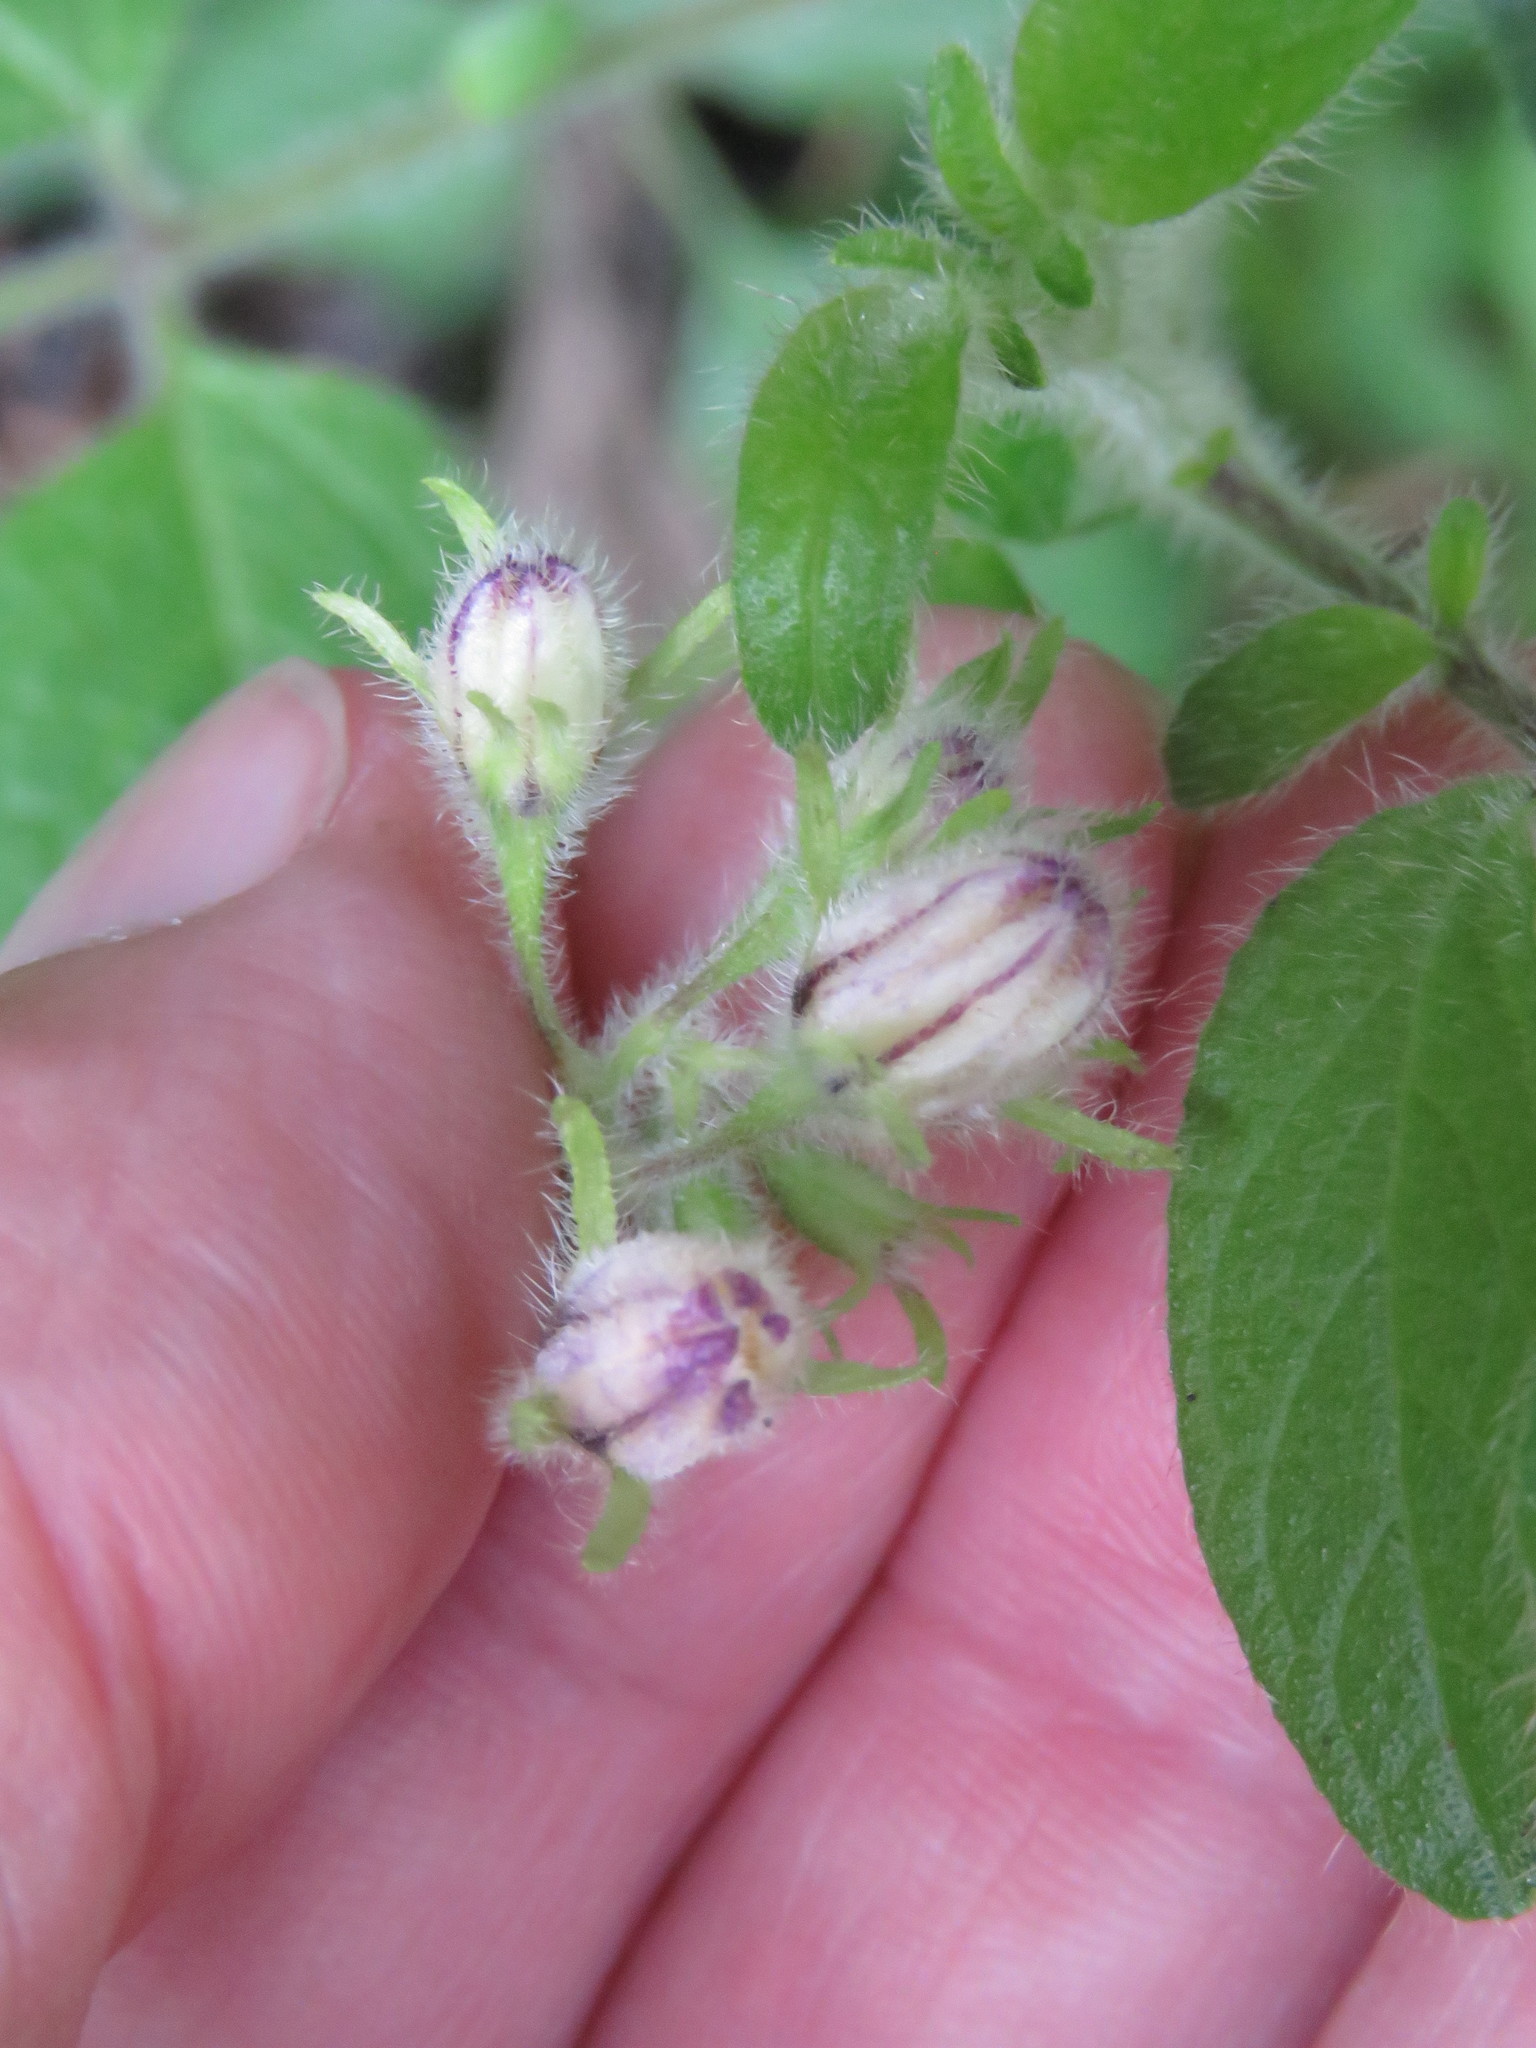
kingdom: Plantae
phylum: Tracheophyta
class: Magnoliopsida
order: Solanales
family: Solanaceae
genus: Solanum
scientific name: Solanum caripense
